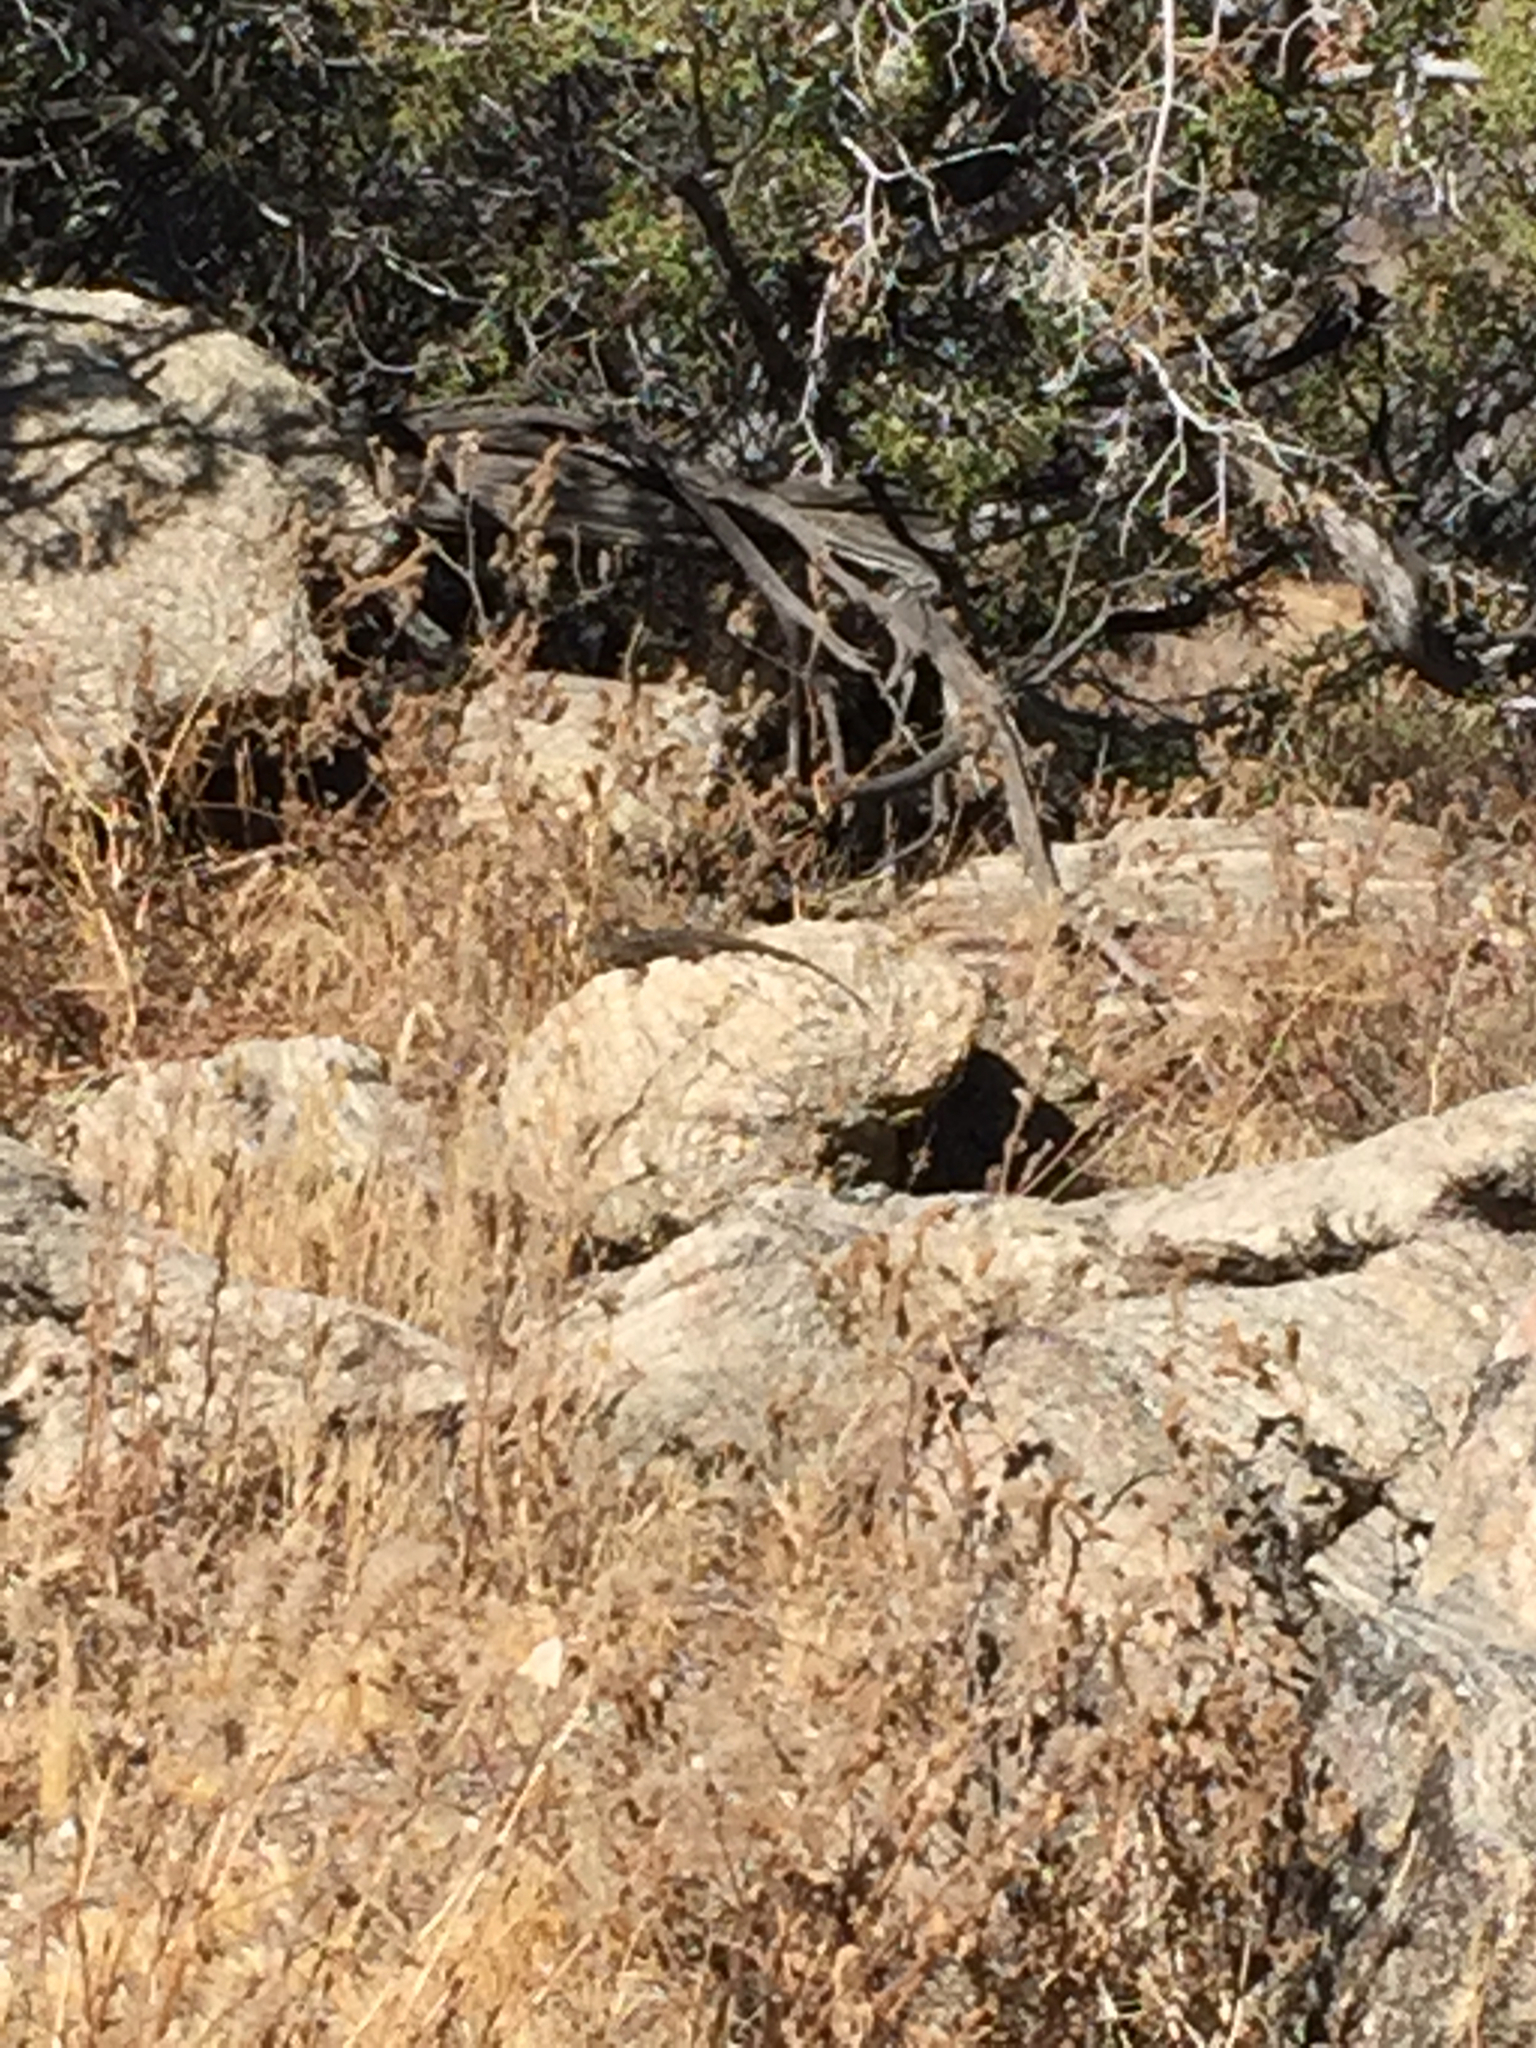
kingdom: Animalia
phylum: Chordata
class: Squamata
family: Phrynosomatidae
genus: Sceloporus
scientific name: Sceloporus occidentalis
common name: Western fence lizard
